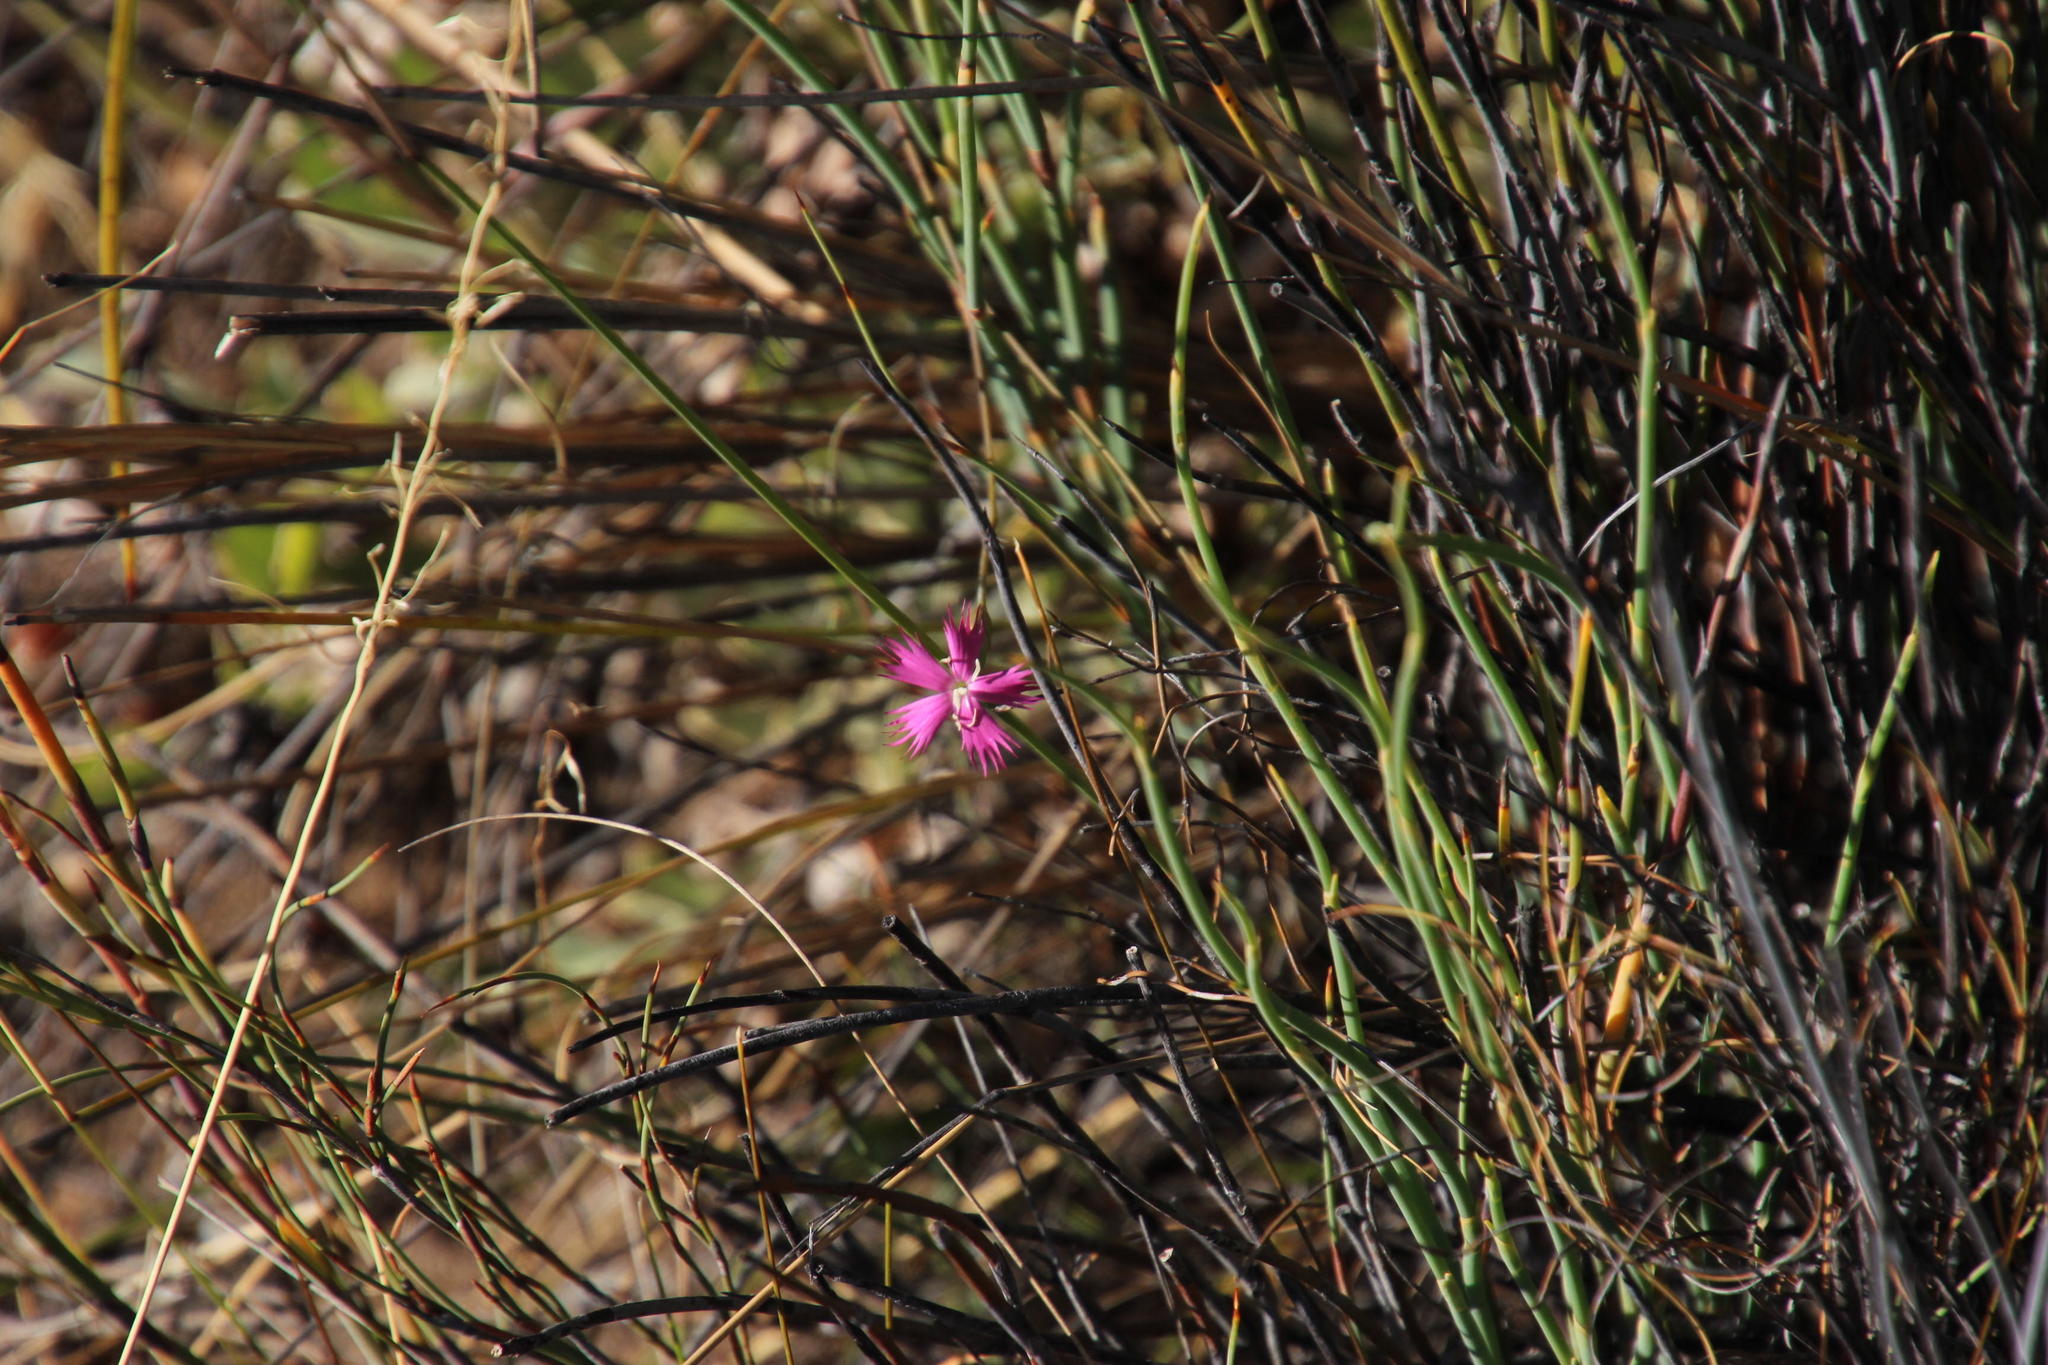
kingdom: Plantae
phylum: Tracheophyta
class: Magnoliopsida
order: Caryophyllales
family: Caryophyllaceae
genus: Dianthus
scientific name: Dianthus bolusii
